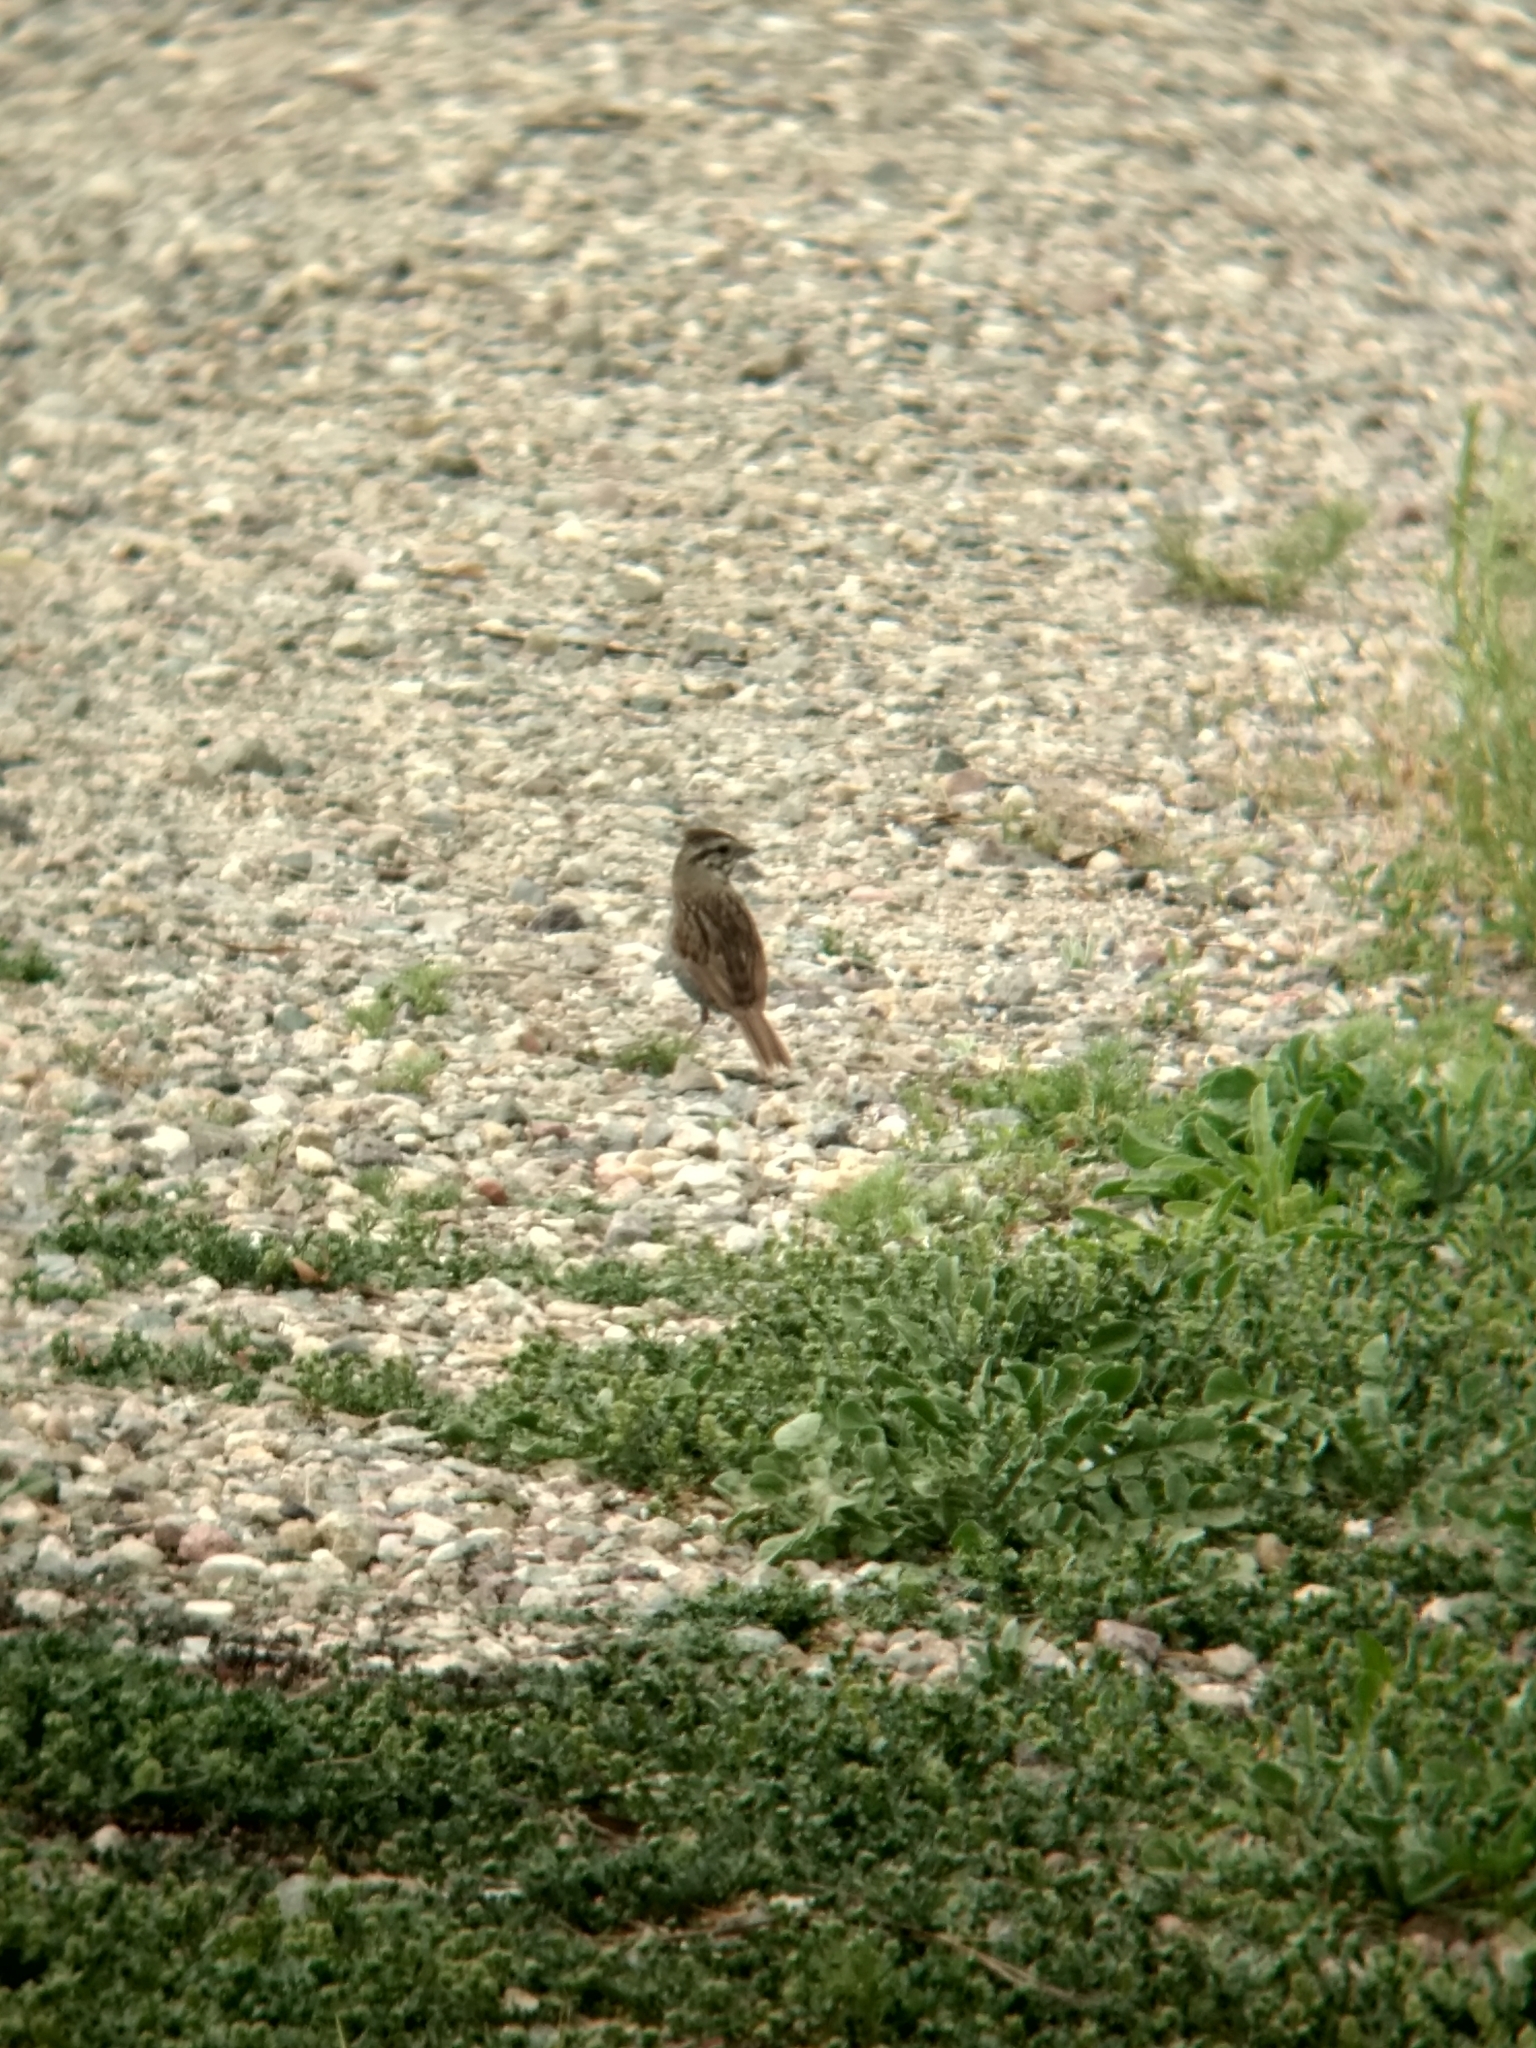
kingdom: Animalia
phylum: Chordata
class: Aves
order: Passeriformes
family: Passerellidae
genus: Melospiza
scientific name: Melospiza melodia
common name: Song sparrow
